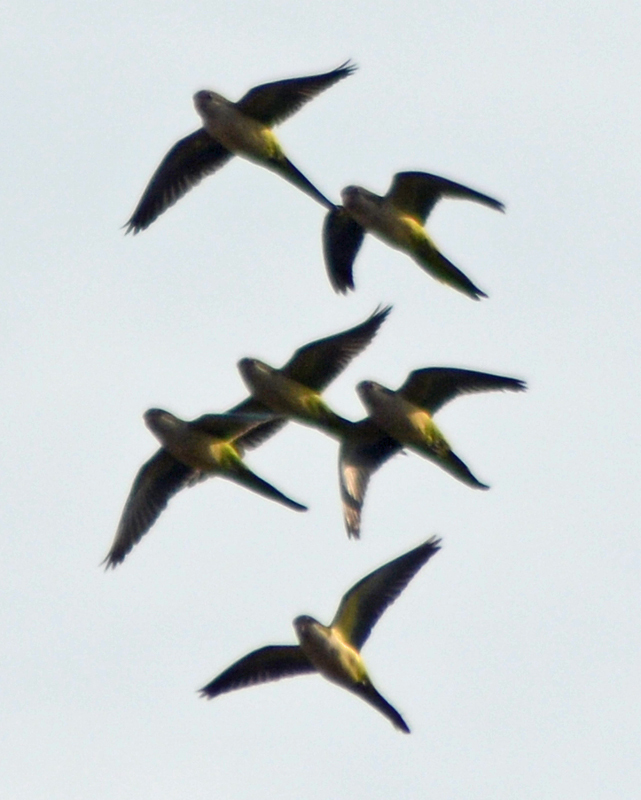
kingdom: Animalia
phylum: Chordata
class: Aves
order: Psittaciformes
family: Psittacidae
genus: Myiopsitta
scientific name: Myiopsitta monachus
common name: Monk parakeet
